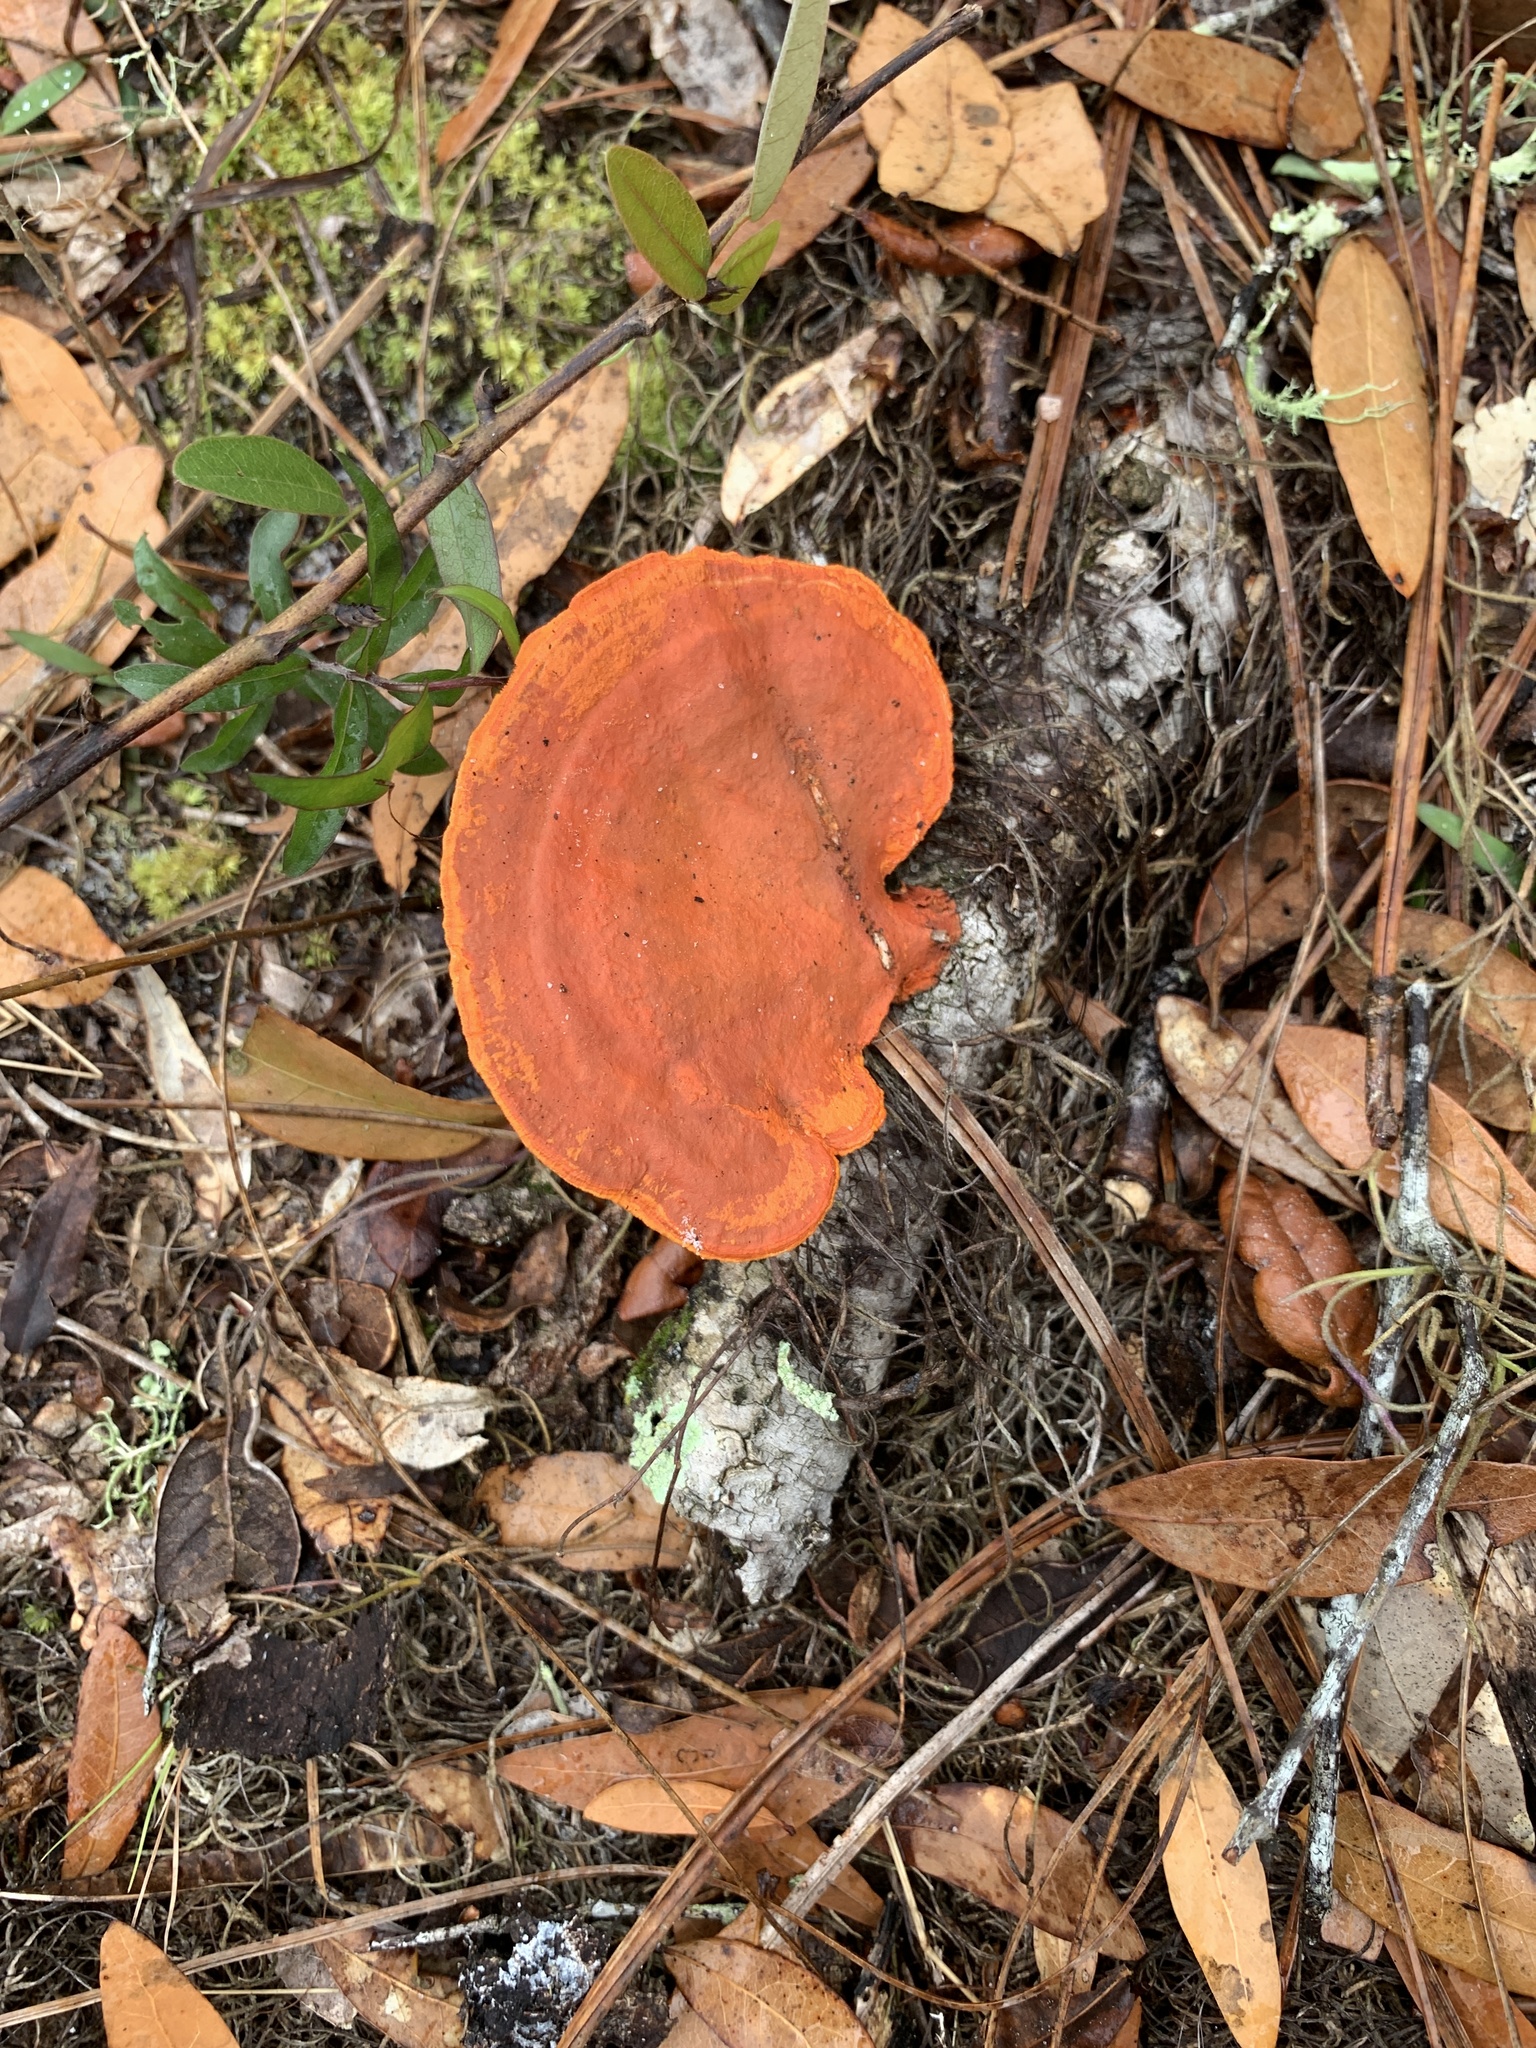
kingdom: Fungi
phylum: Basidiomycota
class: Agaricomycetes
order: Polyporales
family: Polyporaceae
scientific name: Polyporaceae
